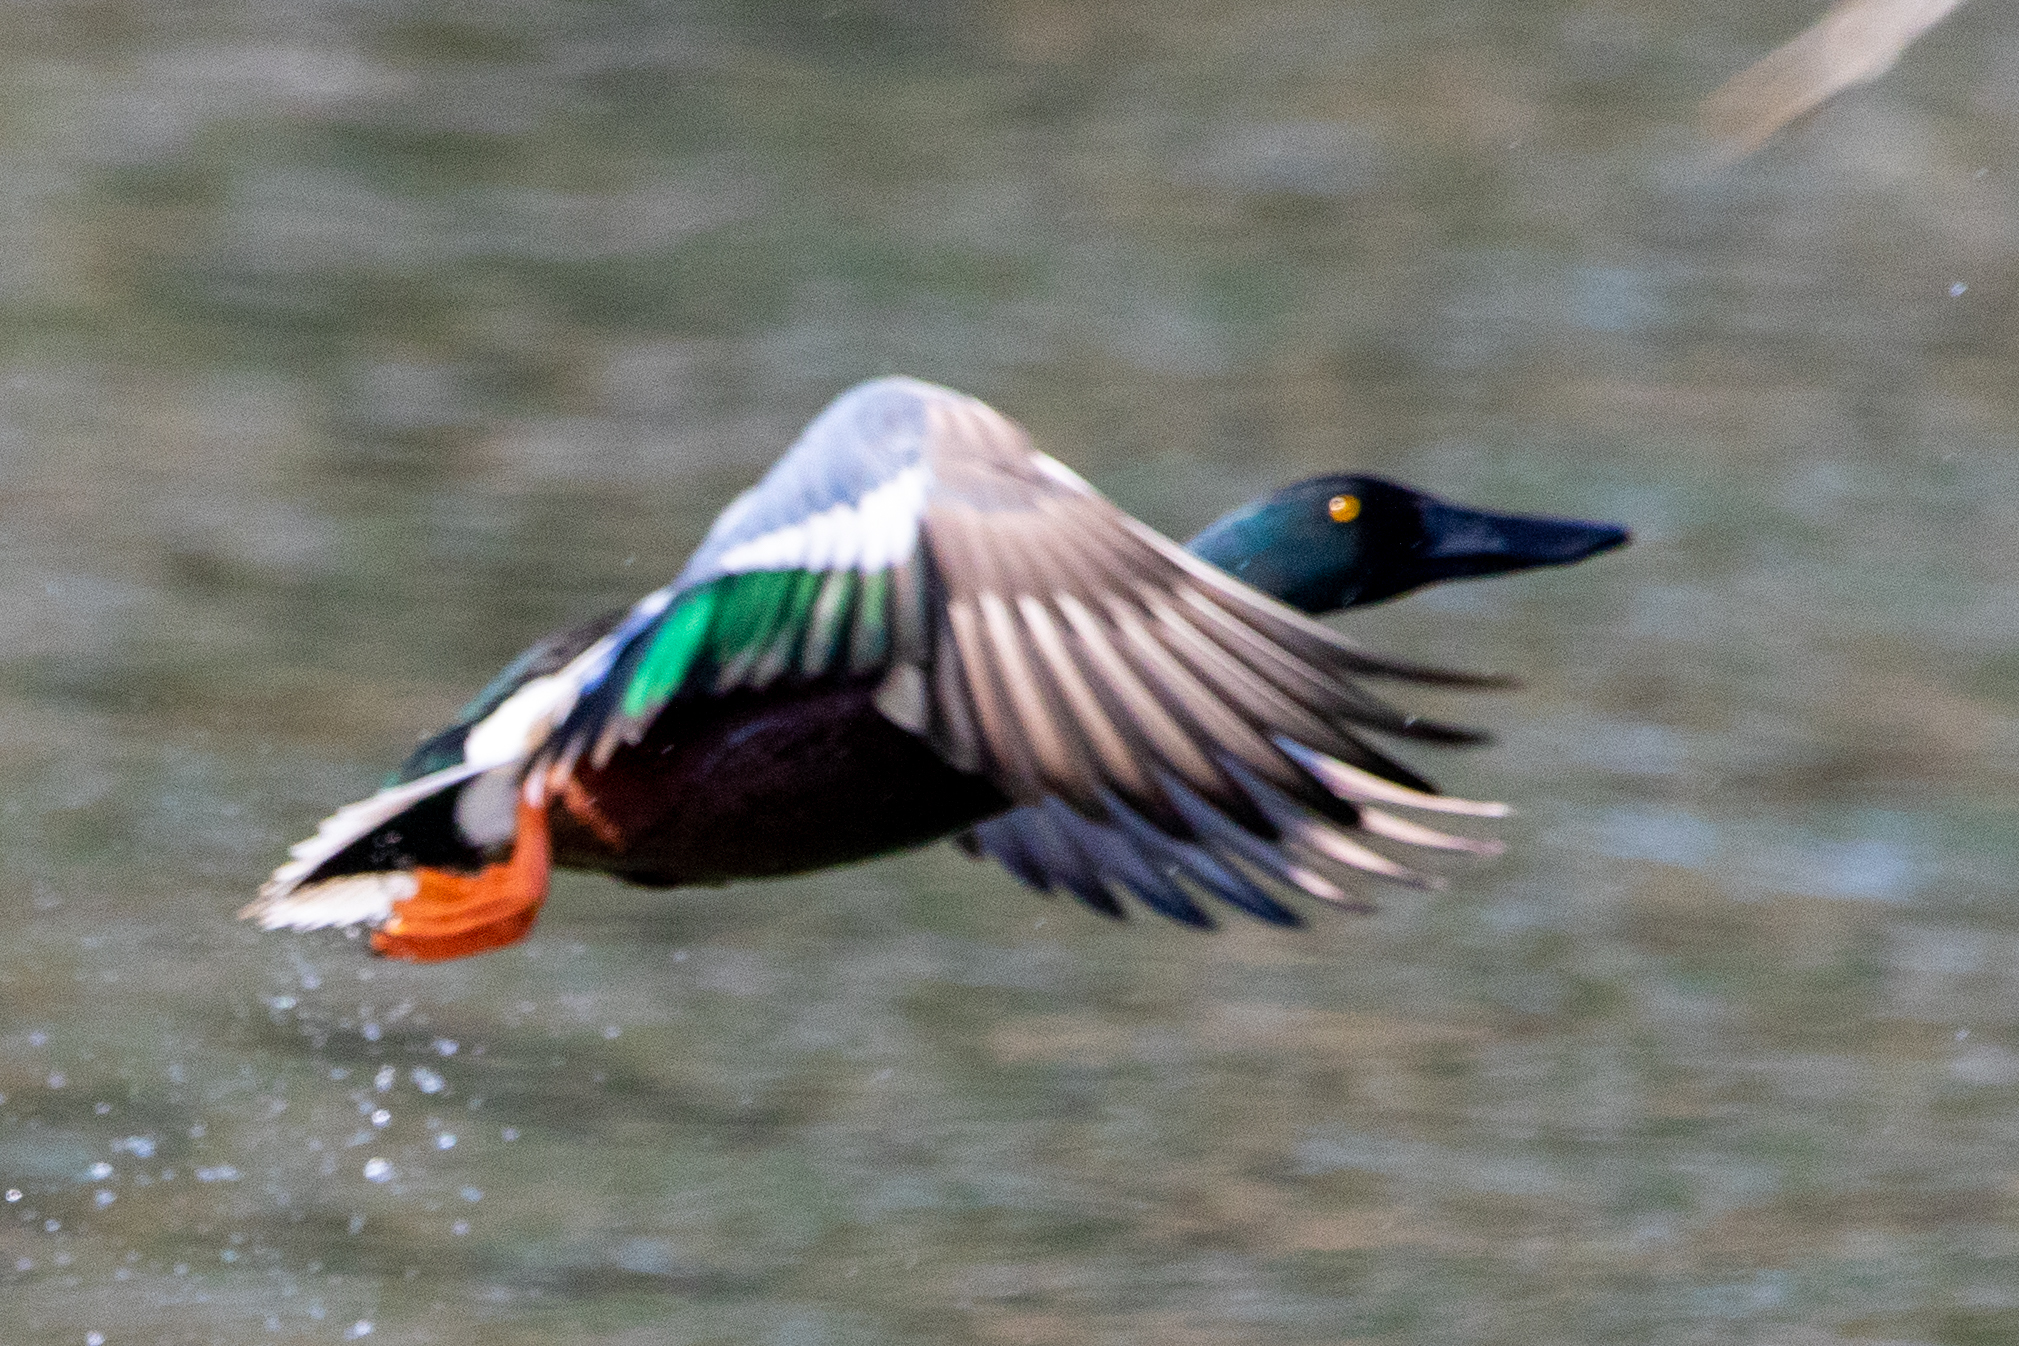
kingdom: Animalia
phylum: Chordata
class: Aves
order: Anseriformes
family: Anatidae
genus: Spatula
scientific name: Spatula clypeata
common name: Northern shoveler
